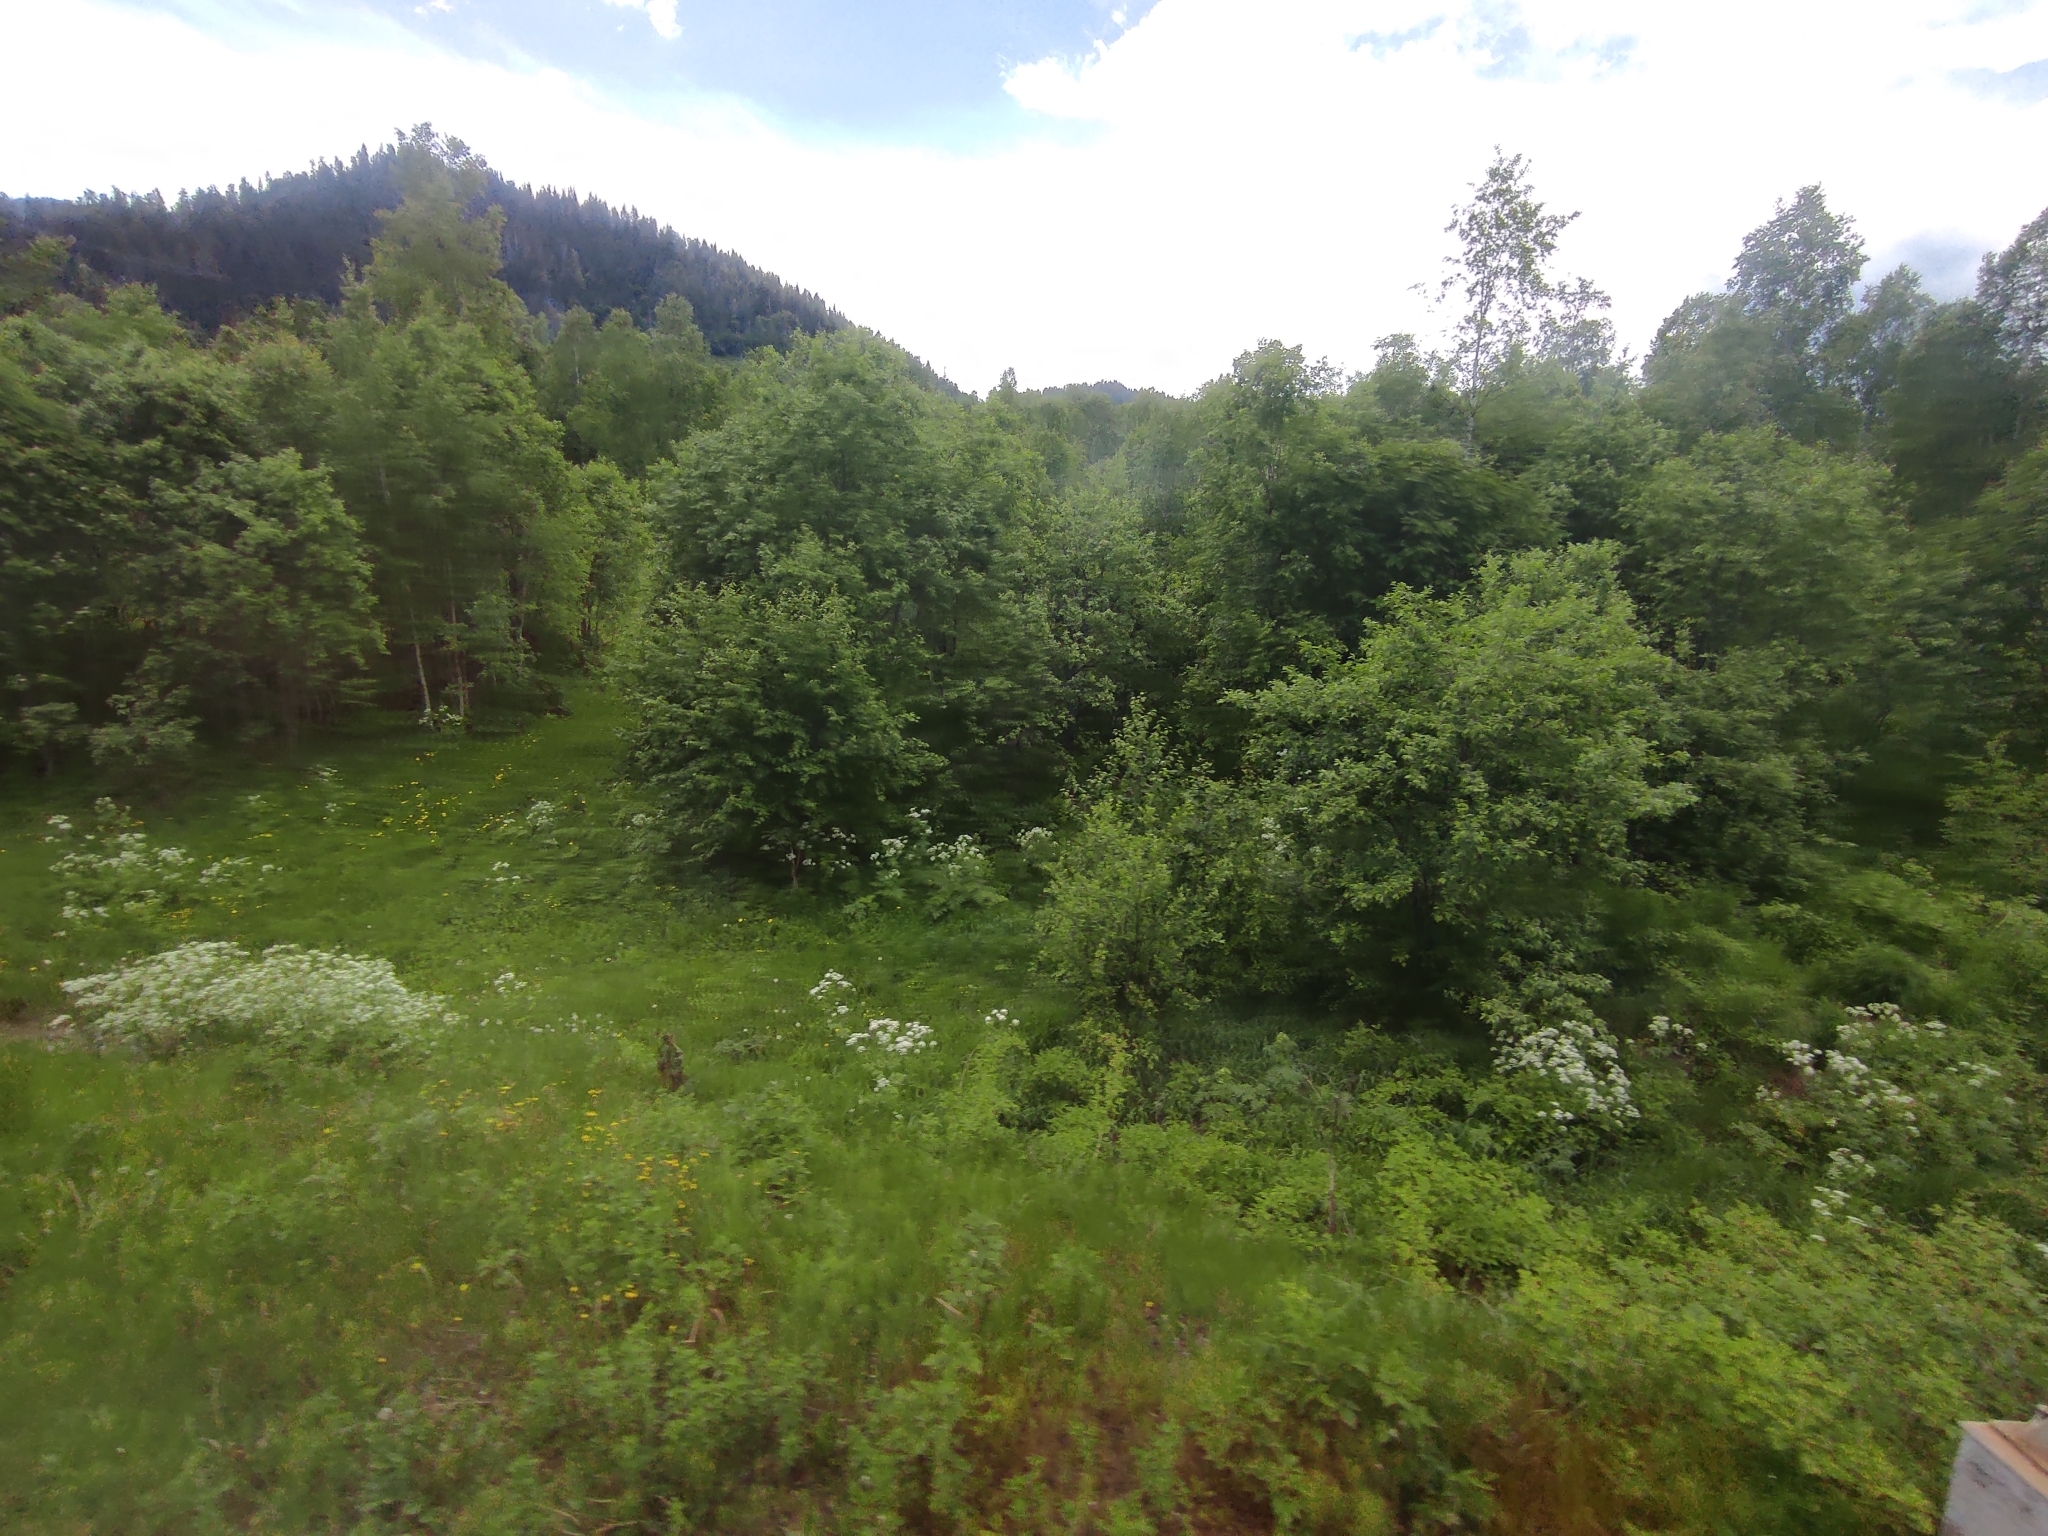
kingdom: Plantae
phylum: Tracheophyta
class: Magnoliopsida
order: Apiales
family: Apiaceae
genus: Anthriscus
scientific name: Anthriscus sylvestris
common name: Cow parsley
